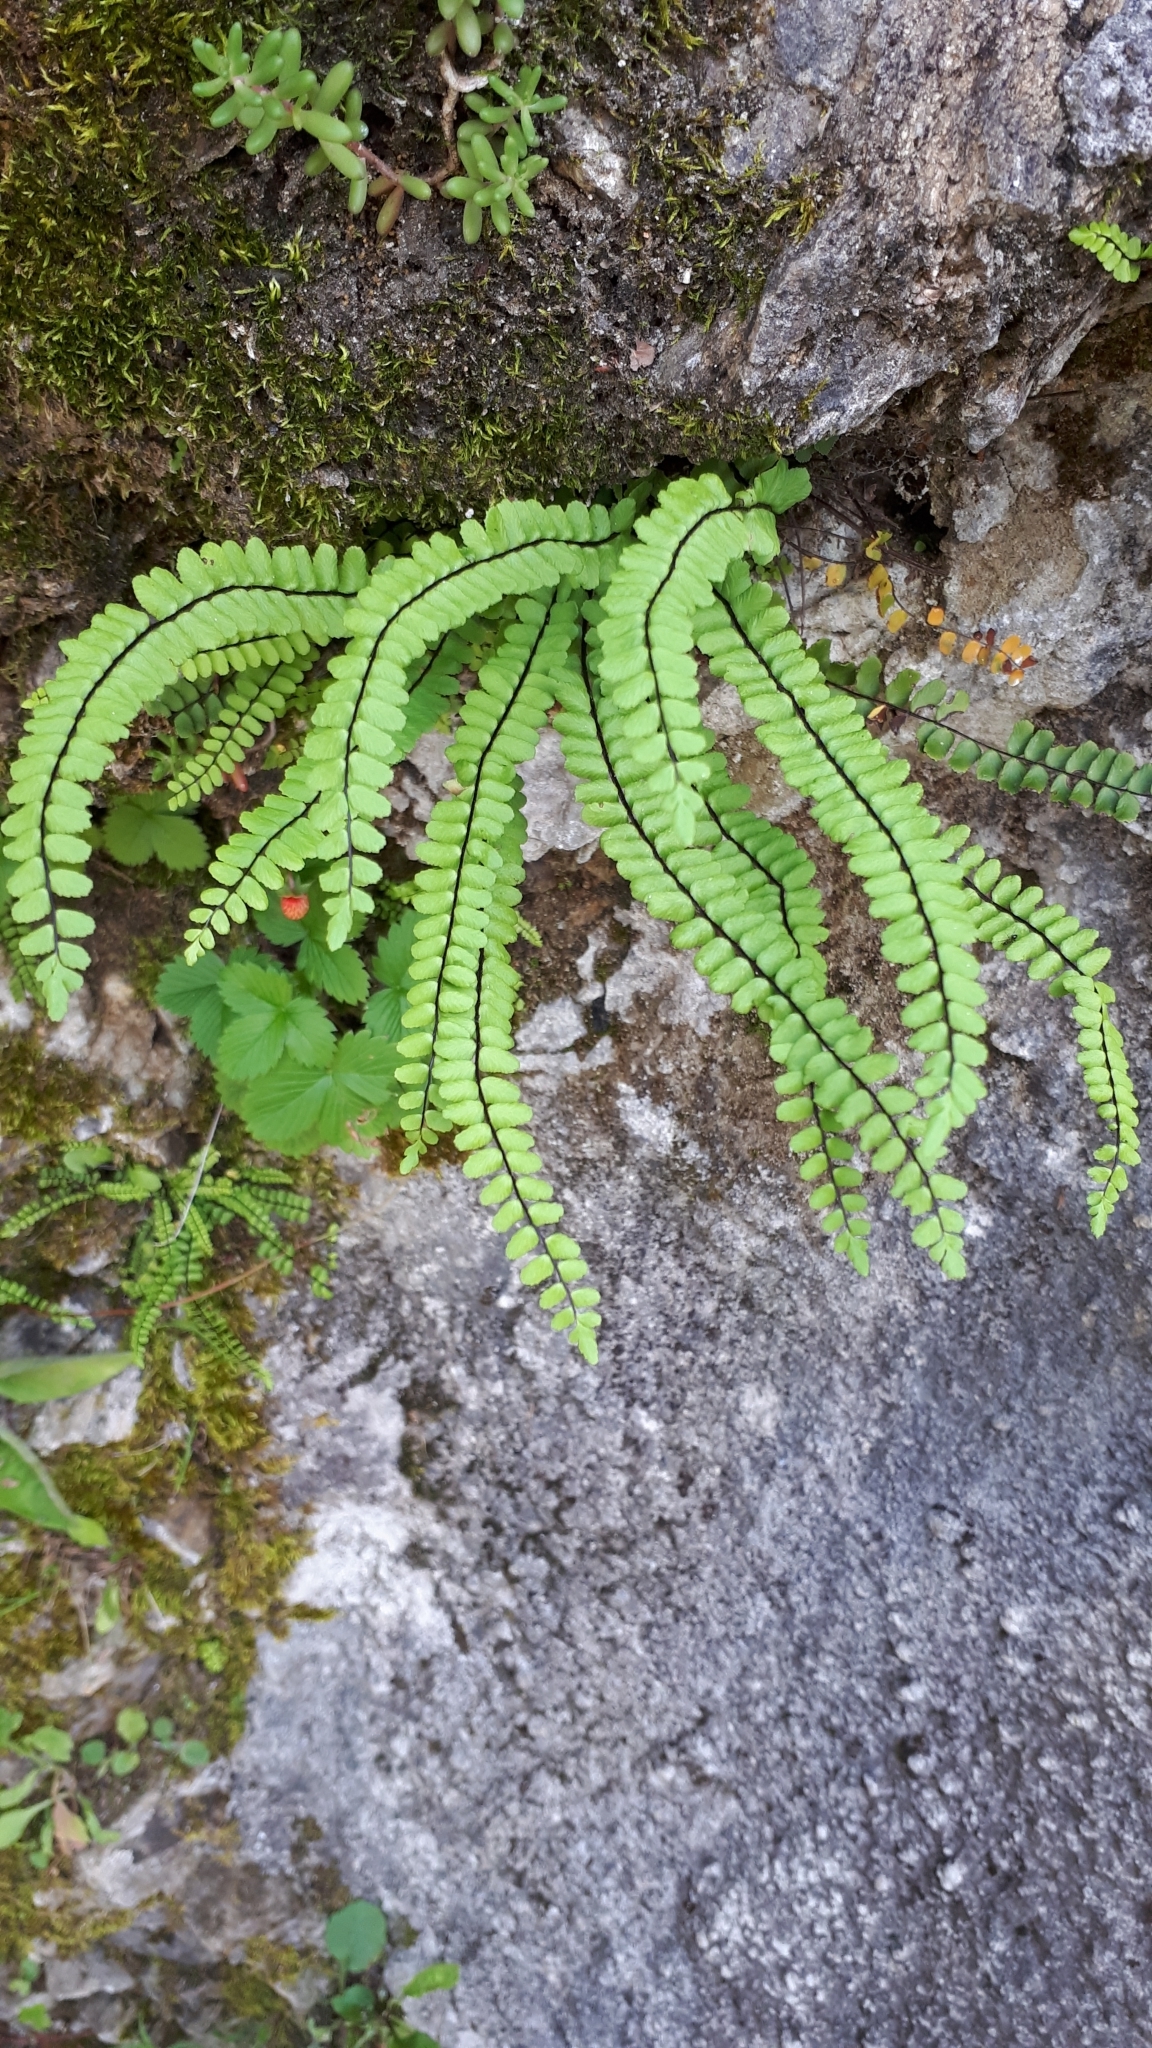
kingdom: Plantae
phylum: Tracheophyta
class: Polypodiopsida
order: Polypodiales
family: Aspleniaceae
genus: Asplenium
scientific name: Asplenium trichomanes
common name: Maidenhair spleenwort
